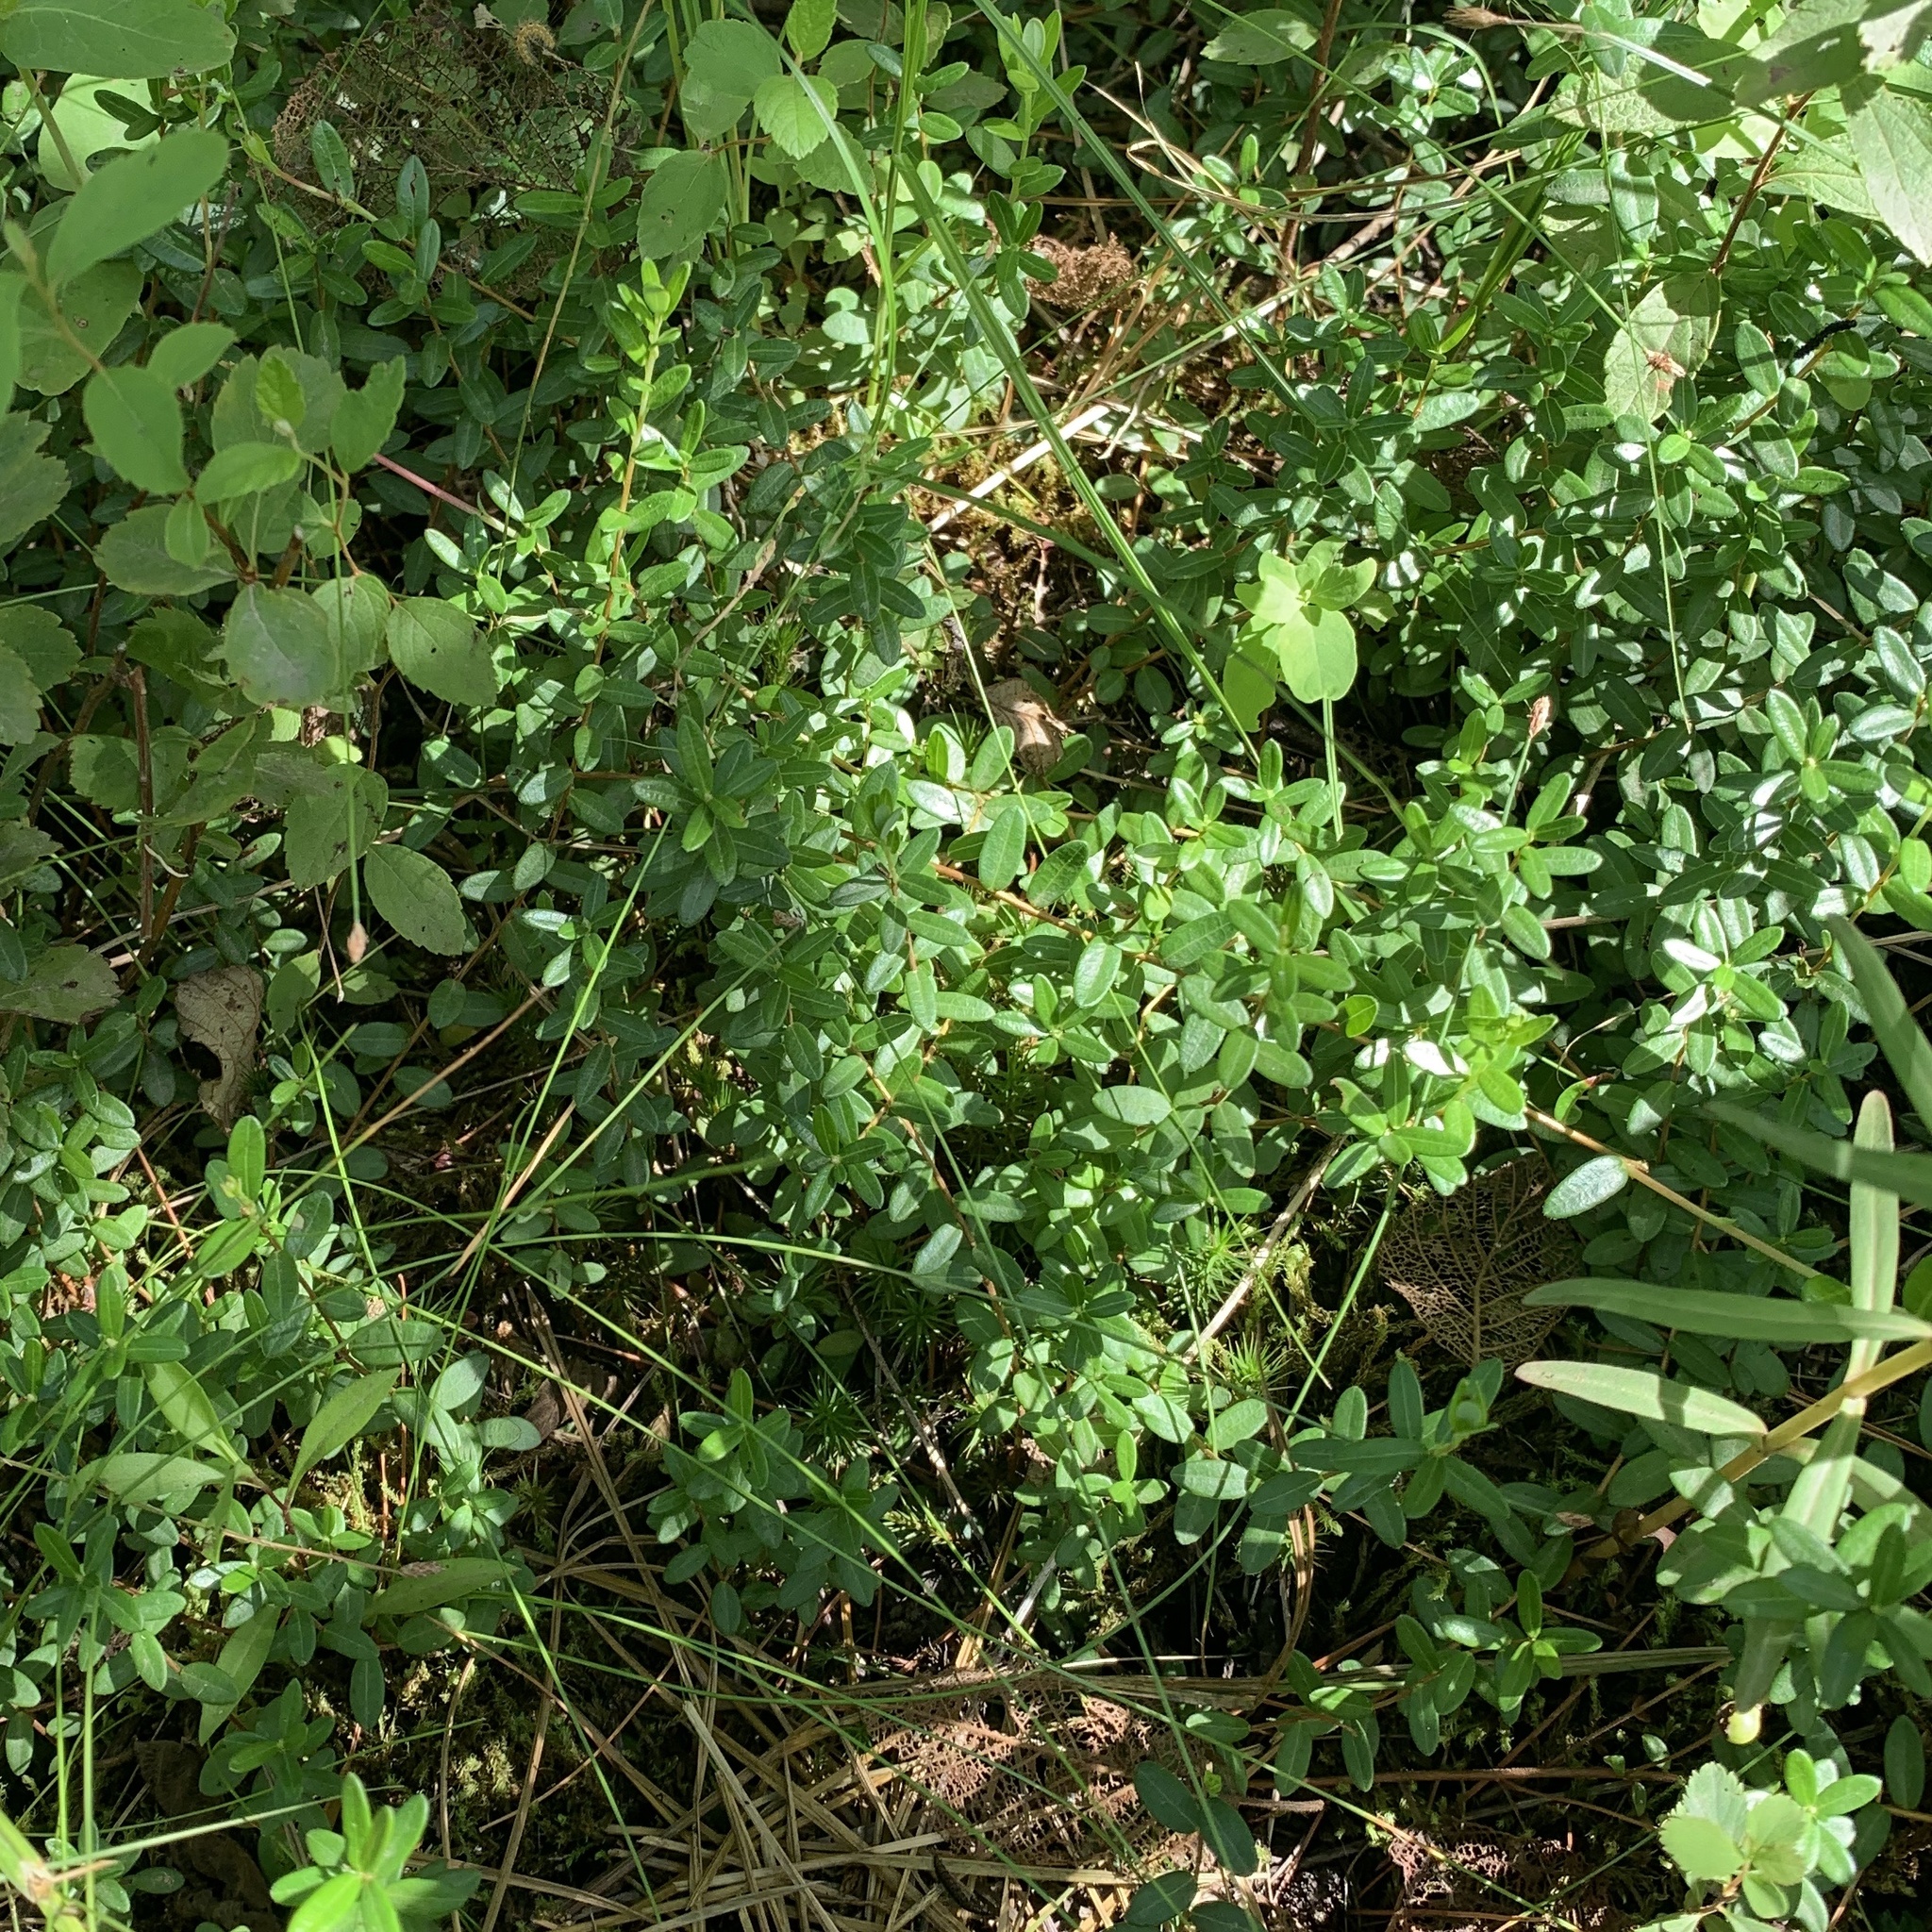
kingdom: Plantae
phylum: Tracheophyta
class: Magnoliopsida
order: Ericales
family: Ericaceae
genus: Vaccinium
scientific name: Vaccinium macrocarpon
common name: American cranberry
